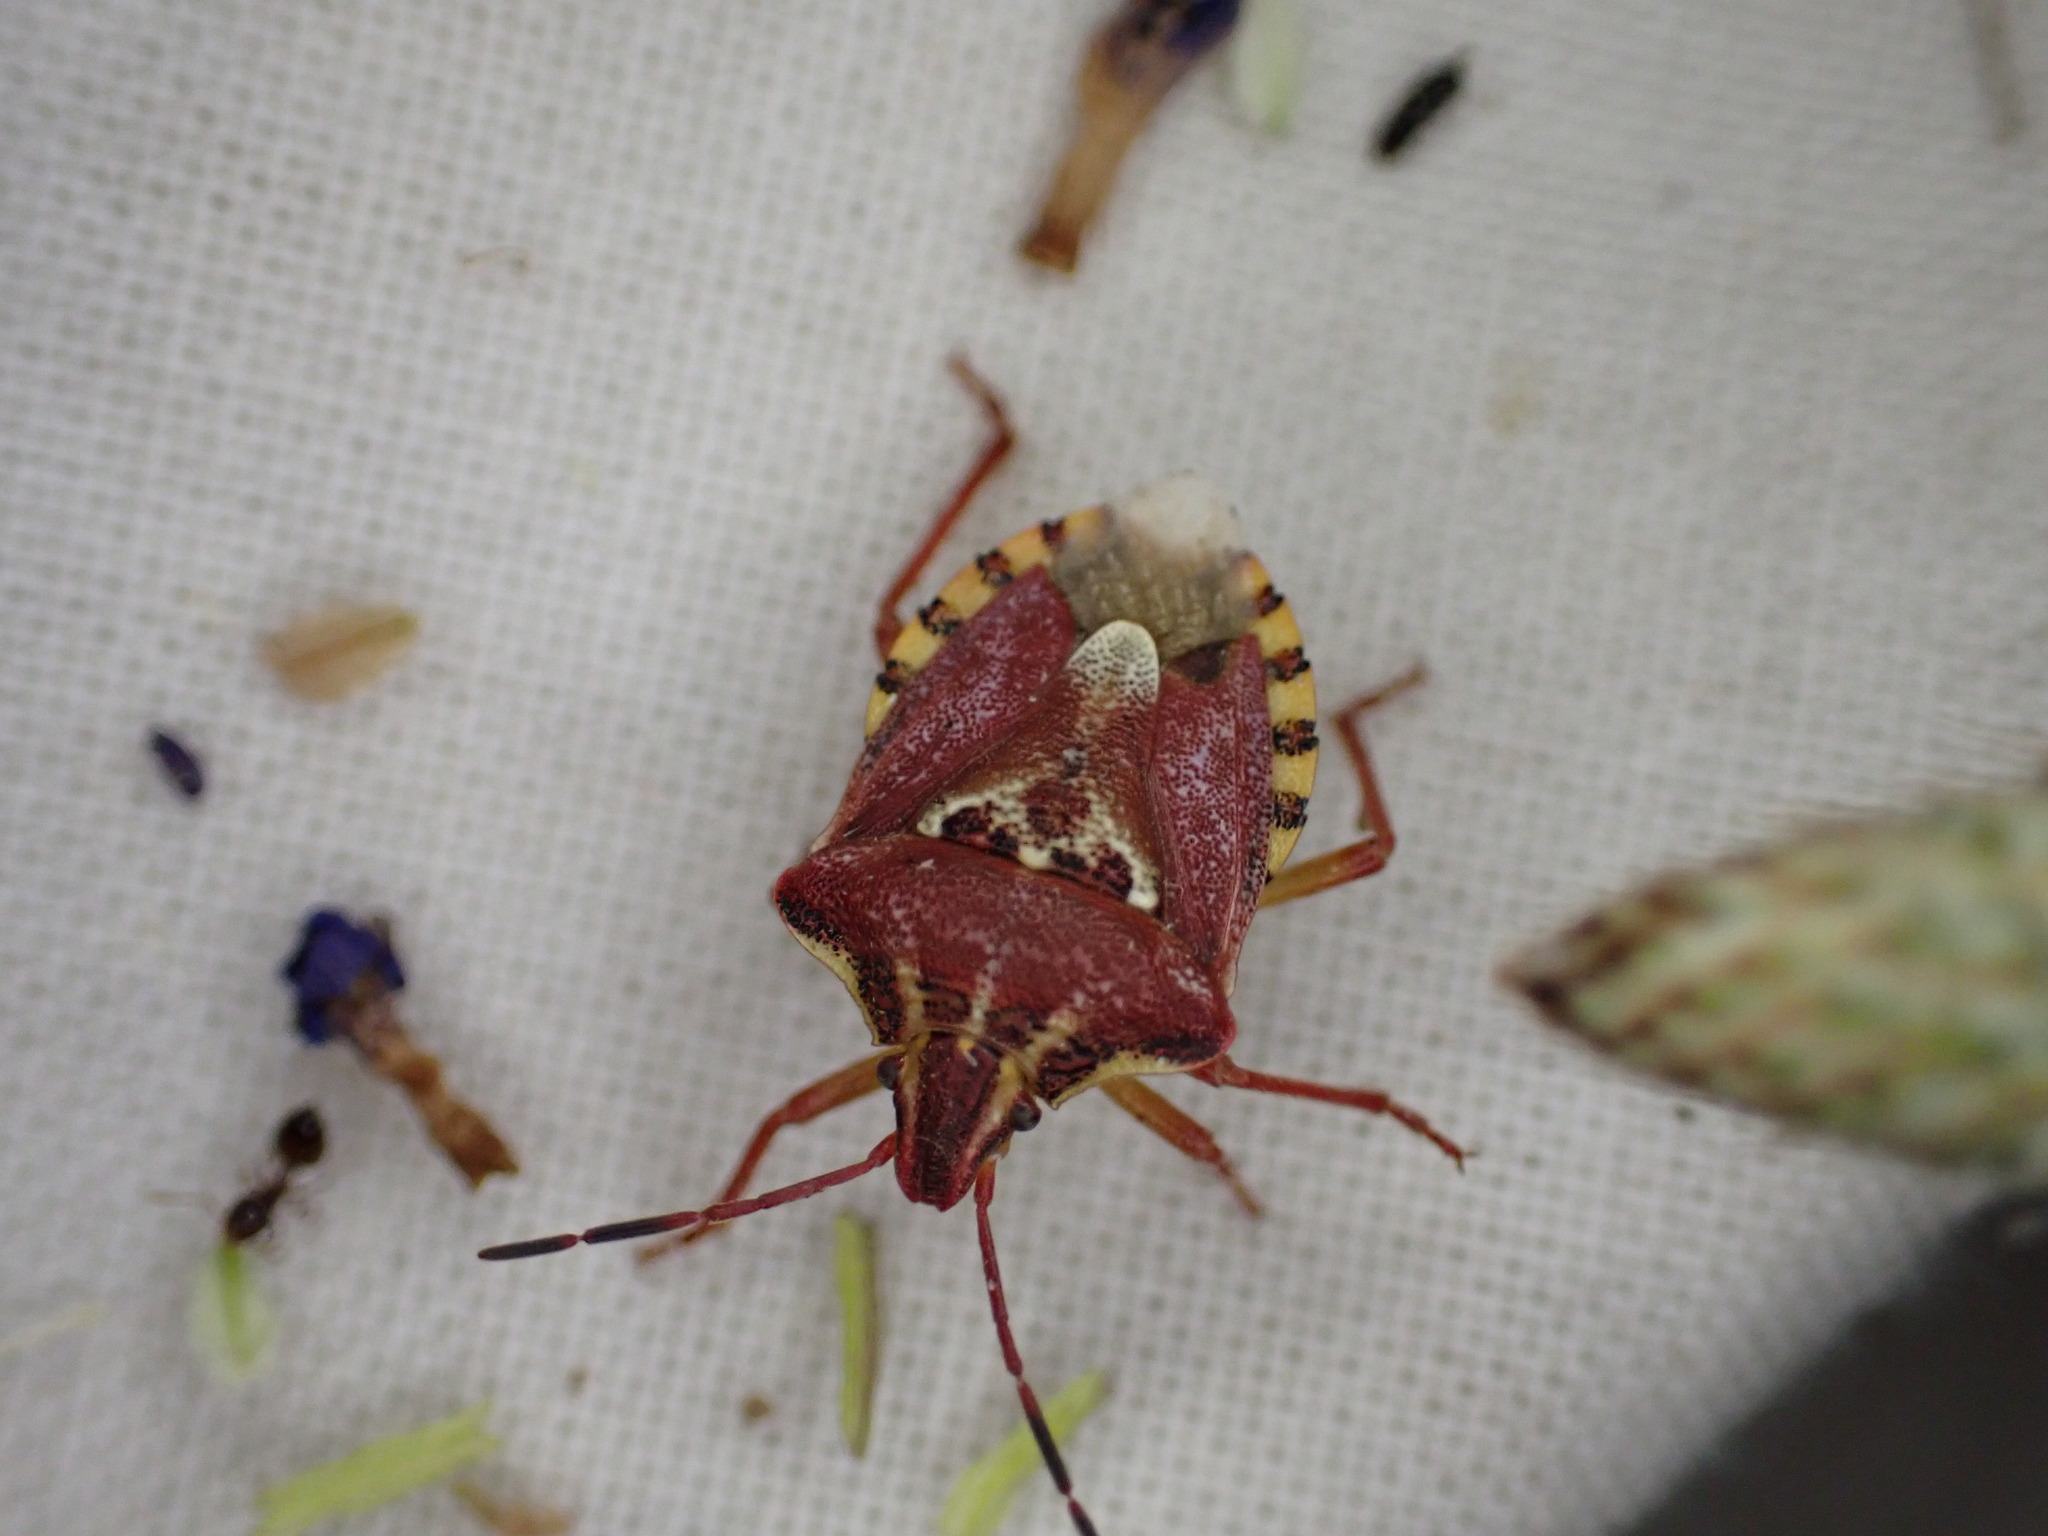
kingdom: Animalia
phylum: Arthropoda
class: Insecta
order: Hemiptera
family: Miridae
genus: Orthops
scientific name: Orthops kalmii
